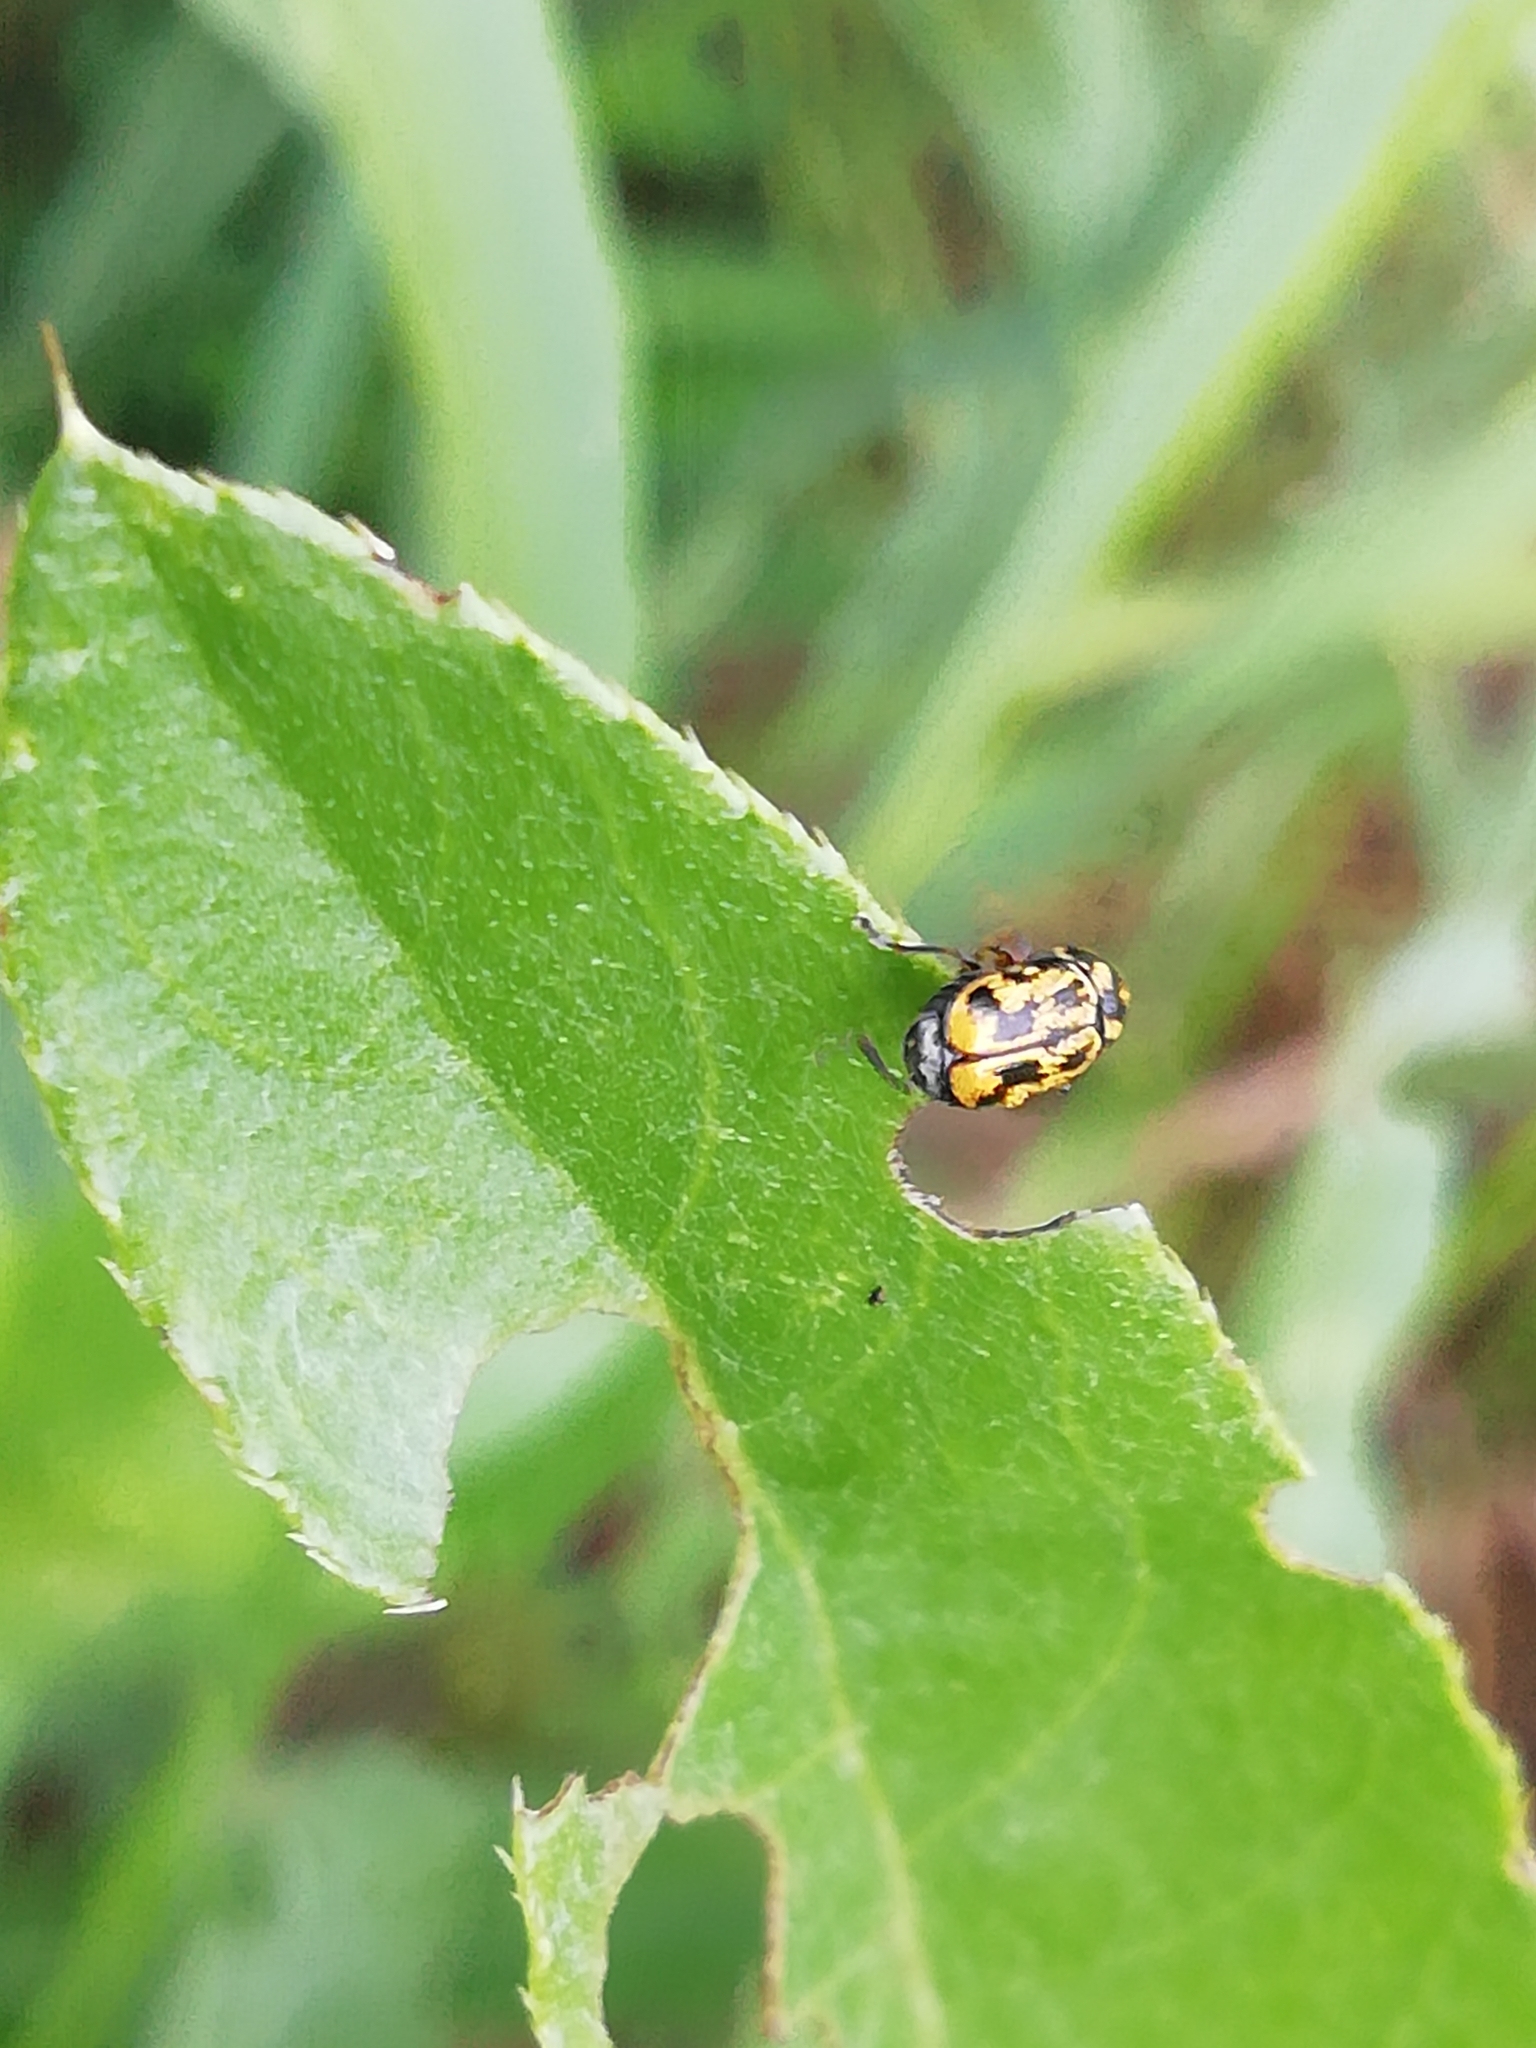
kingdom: Animalia
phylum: Arthropoda
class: Insecta
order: Coleoptera
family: Chrysomelidae
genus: Pachybrachis
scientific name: Pachybrachis hieroglyphicus
